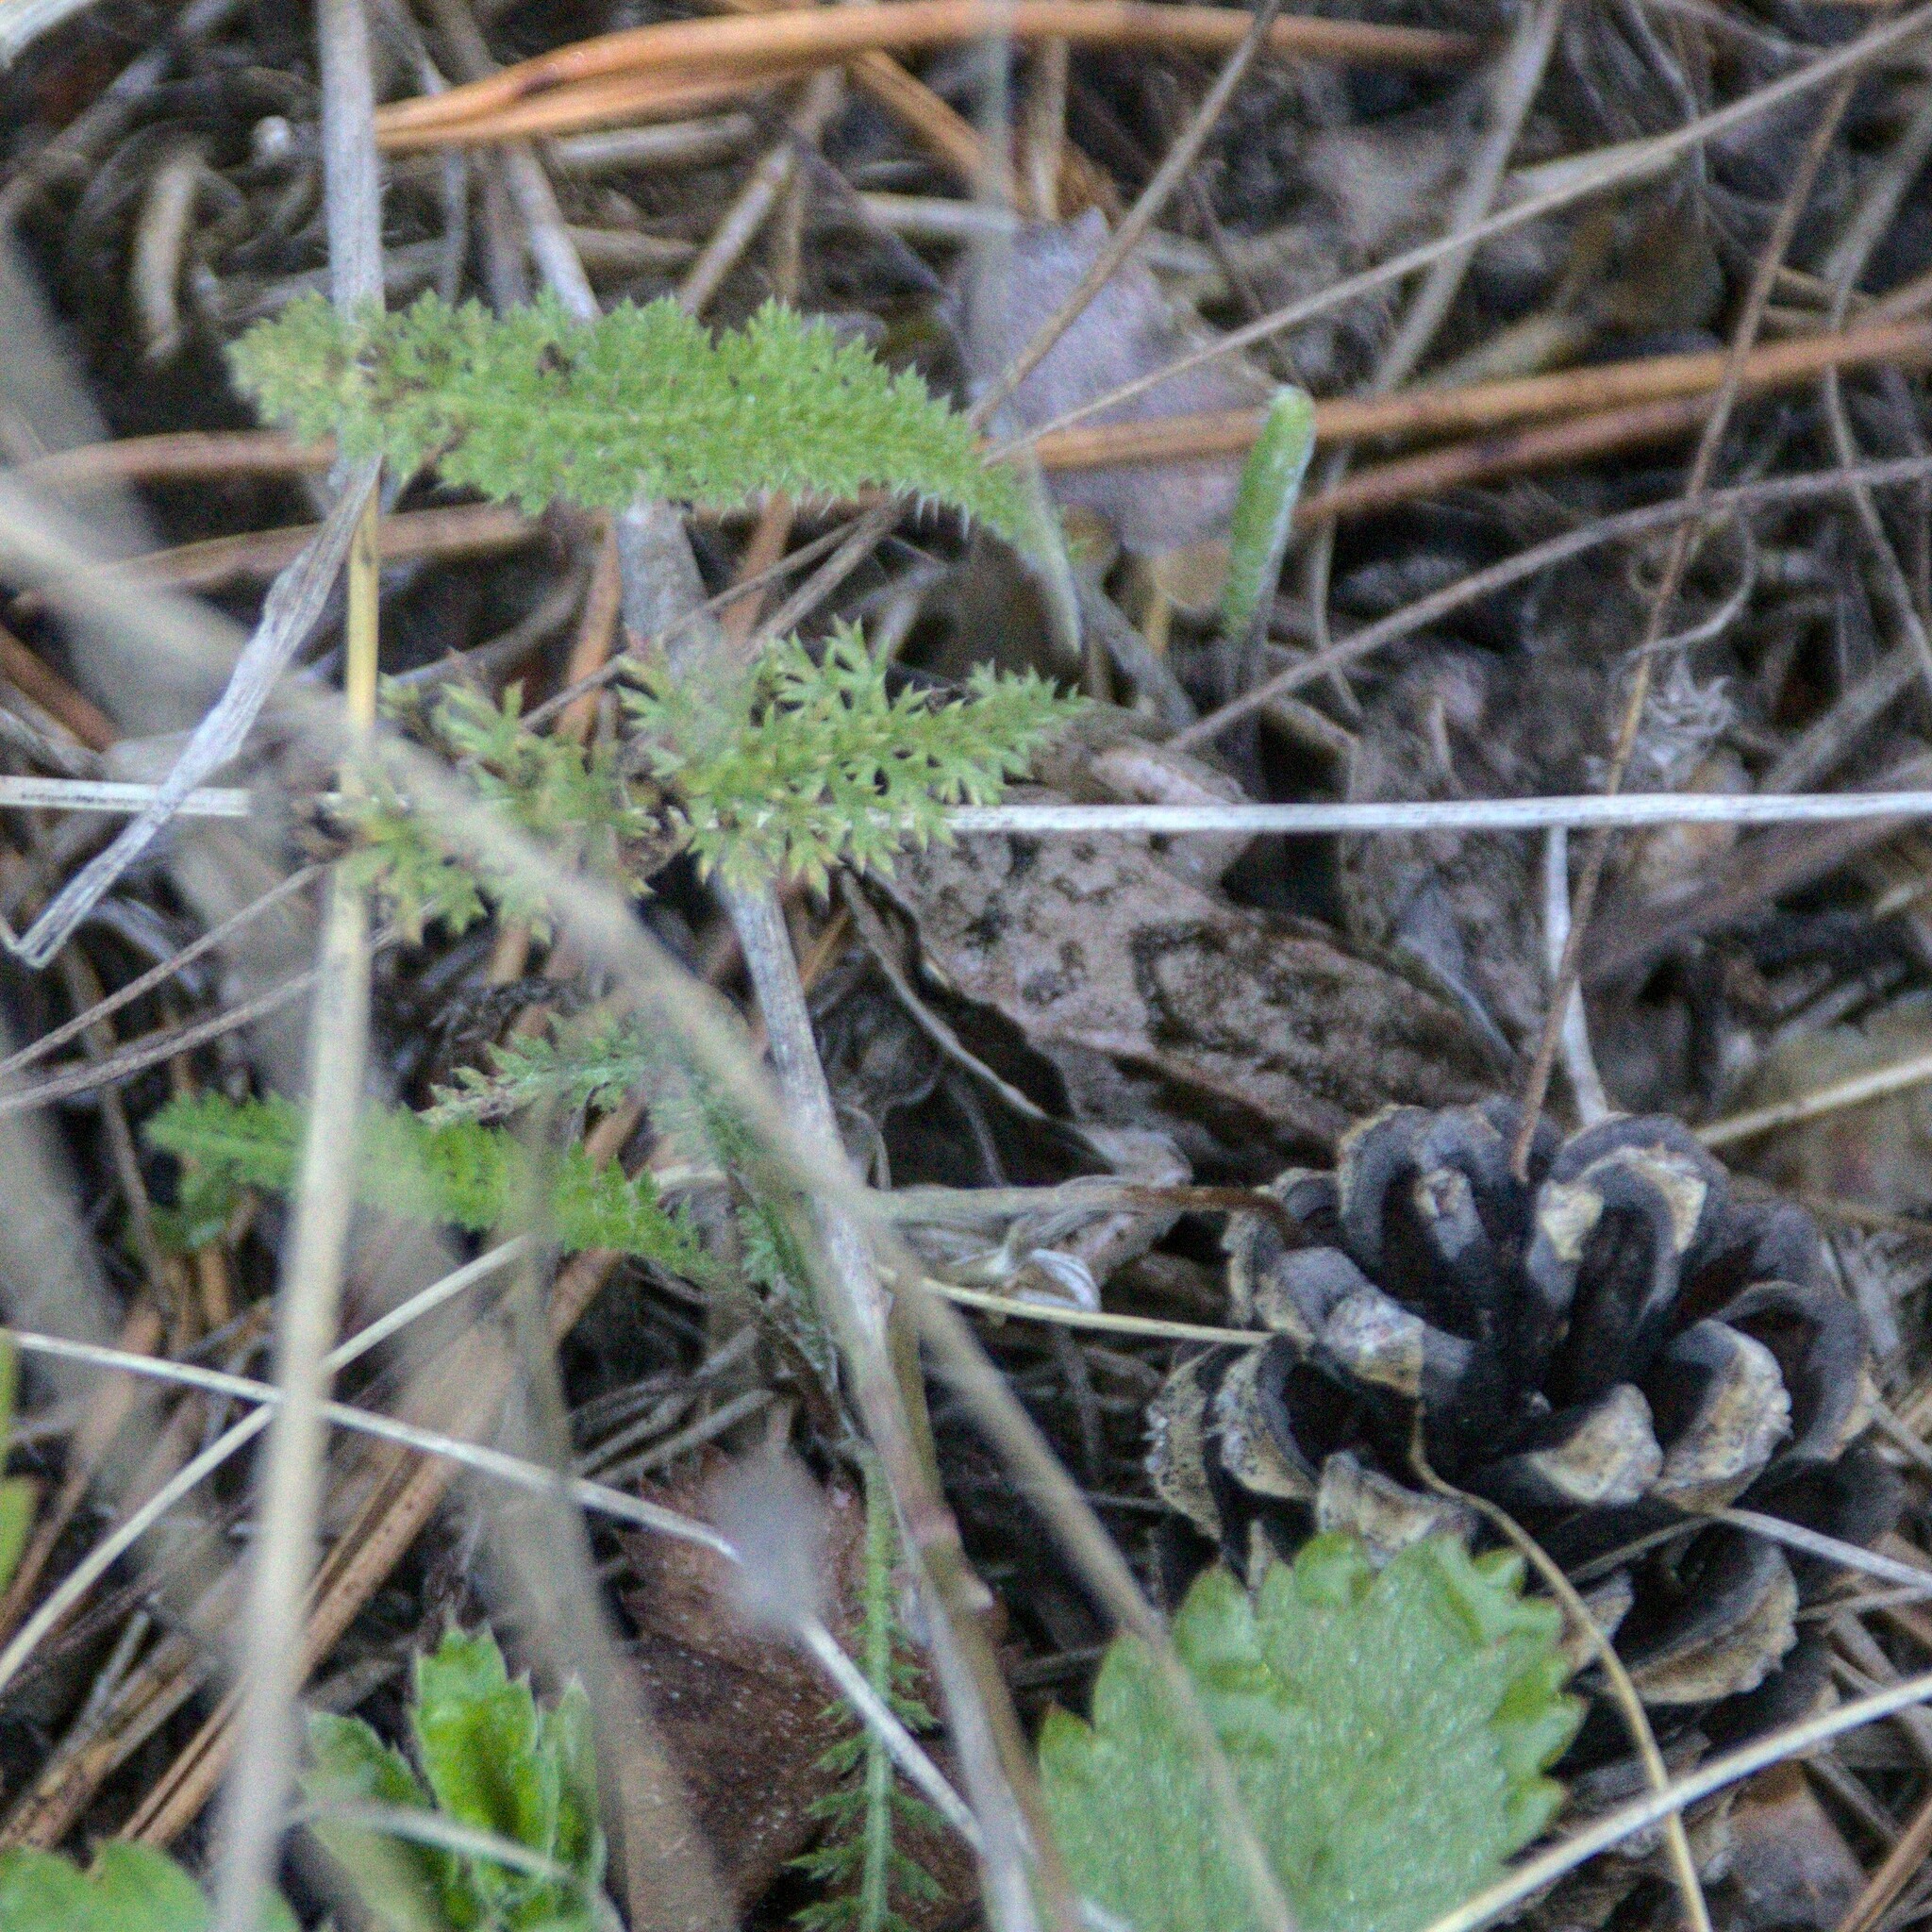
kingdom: Animalia
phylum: Chordata
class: Amphibia
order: Anura
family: Ranidae
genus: Rana
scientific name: Rana arvalis
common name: Moor frog
